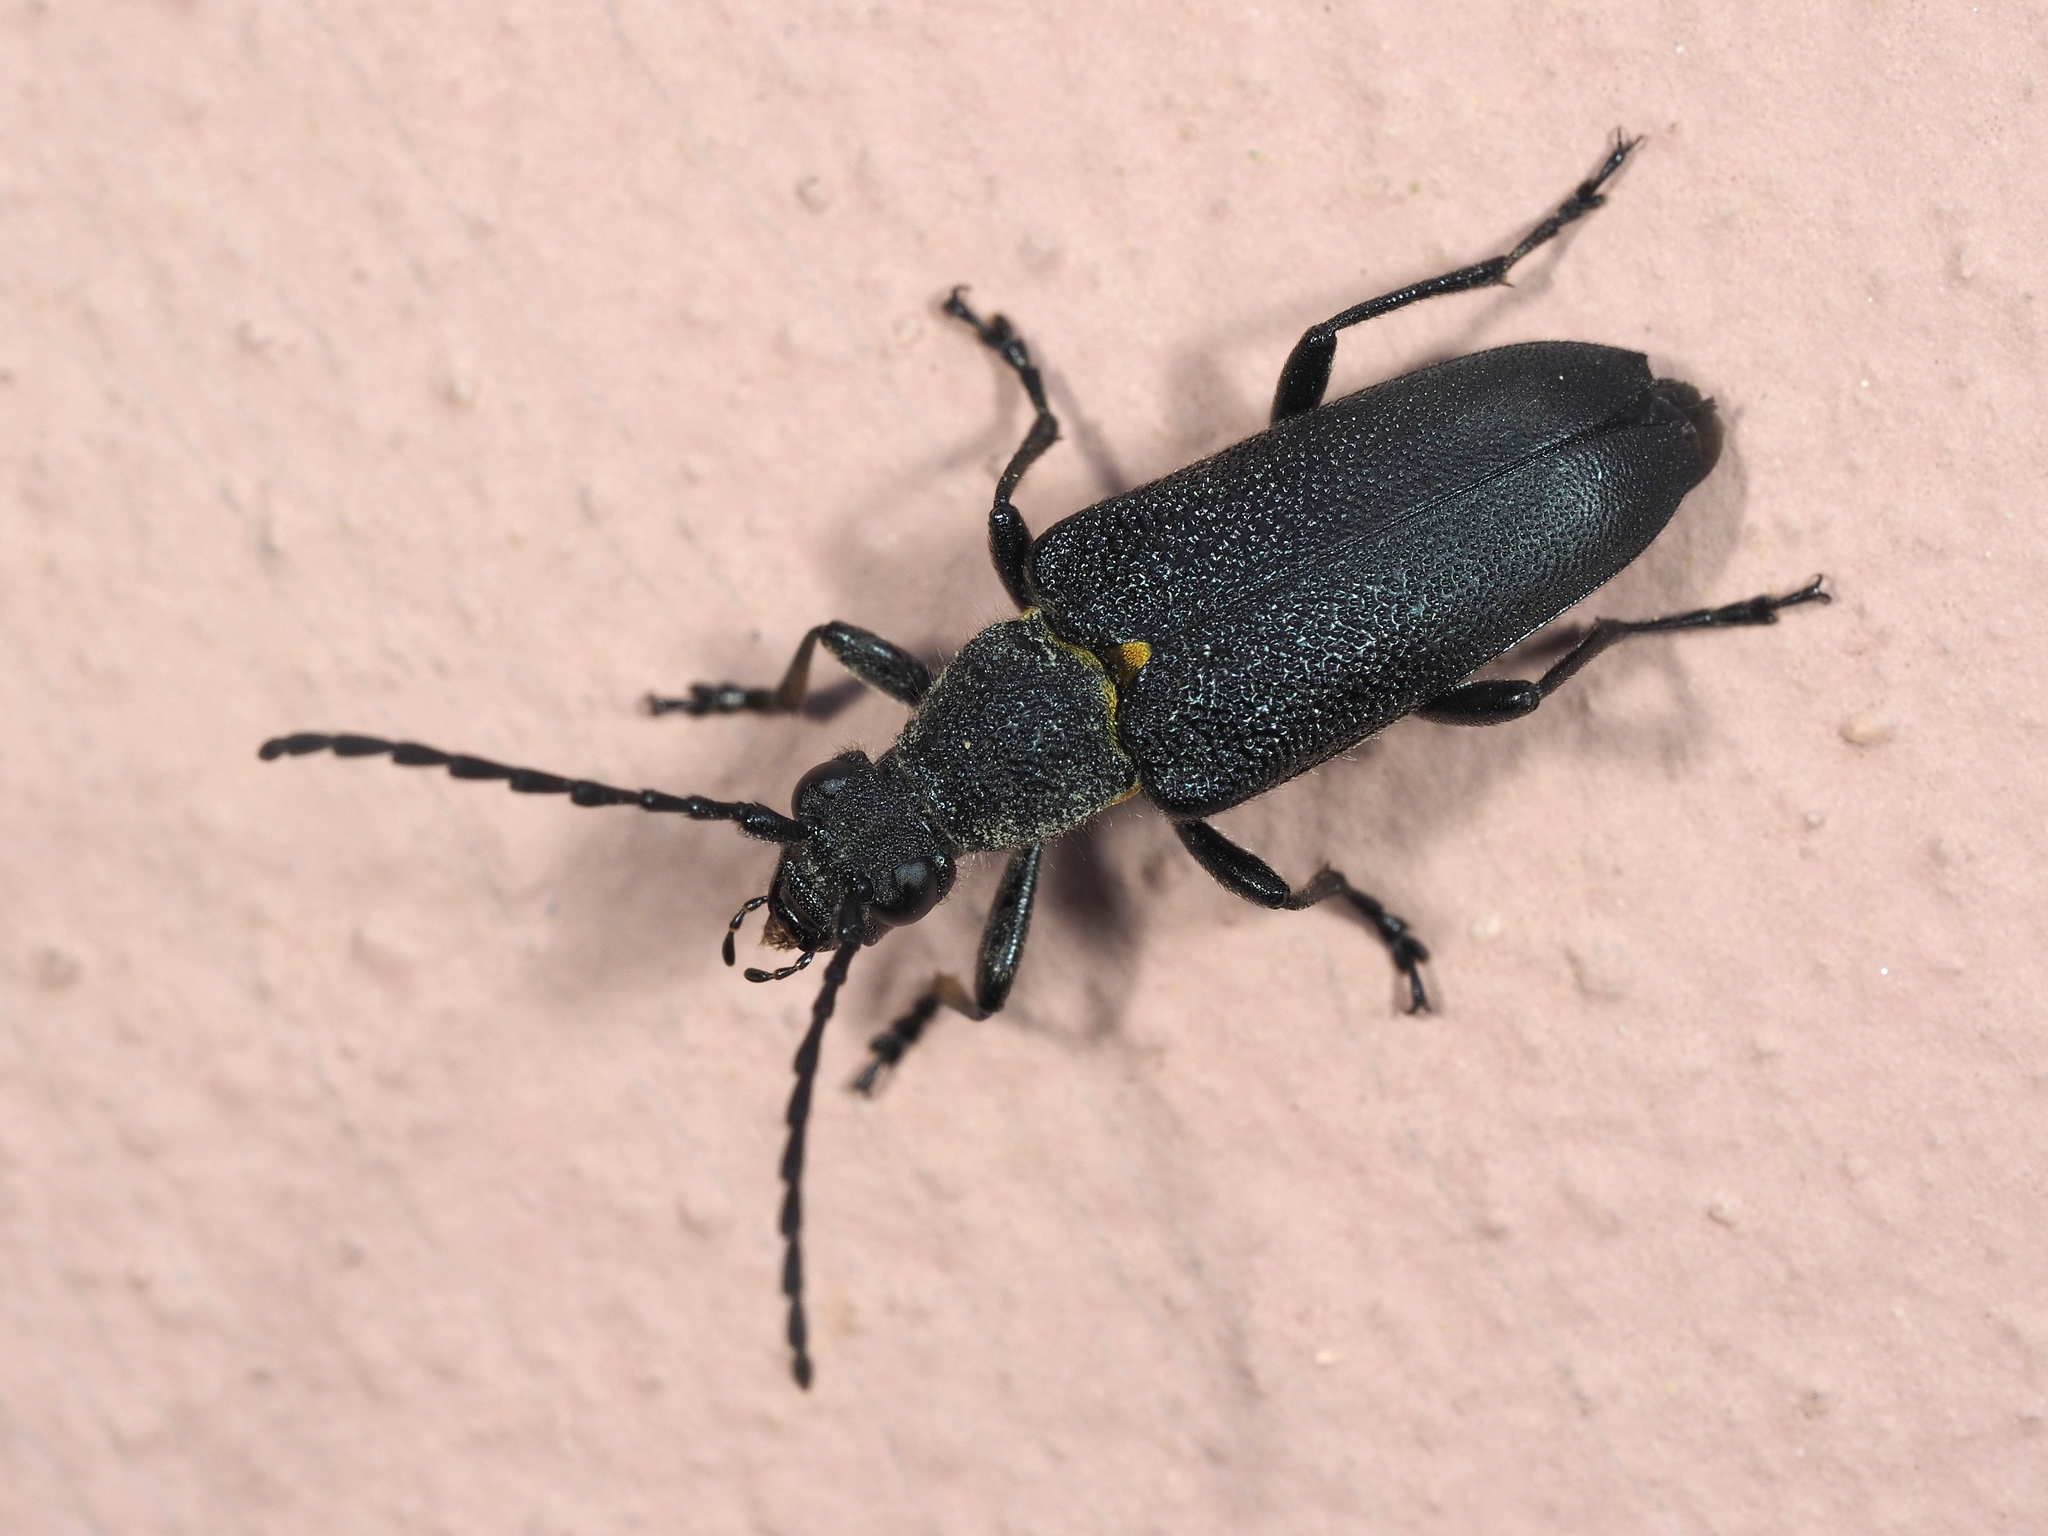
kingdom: Animalia
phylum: Arthropoda
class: Insecta
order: Coleoptera
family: Cerambycidae
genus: Stictoleptura
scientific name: Stictoleptura scutellata
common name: Large black longhorn beetle
